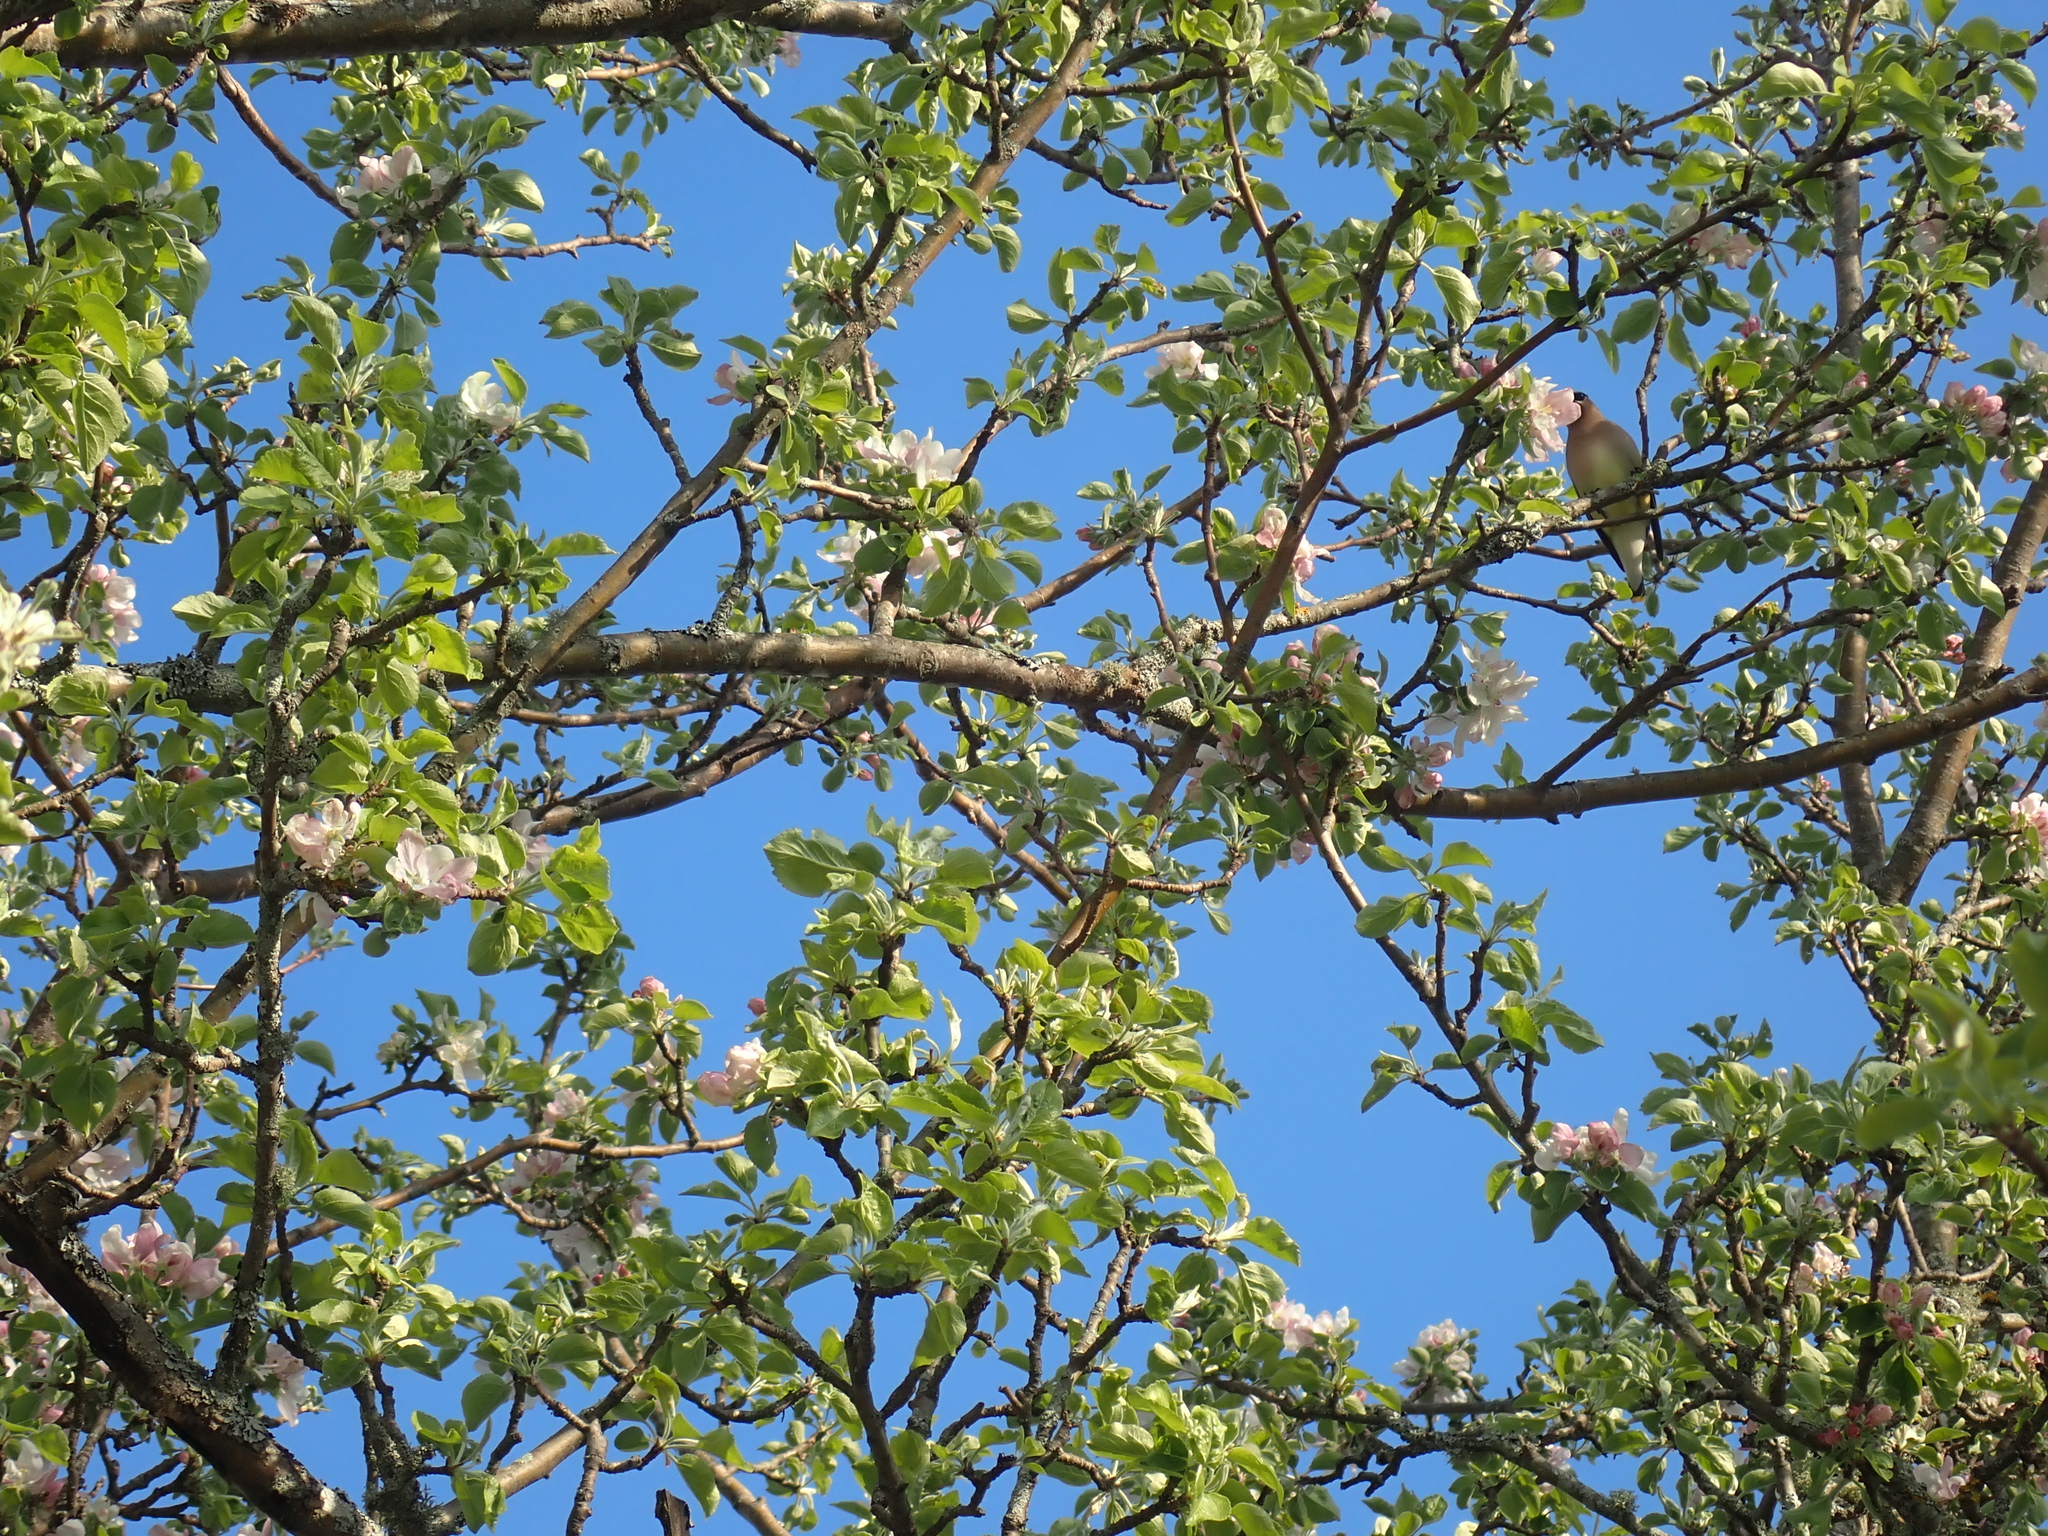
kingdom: Animalia
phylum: Chordata
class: Aves
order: Passeriformes
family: Bombycillidae
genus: Bombycilla
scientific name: Bombycilla cedrorum
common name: Cedar waxwing
